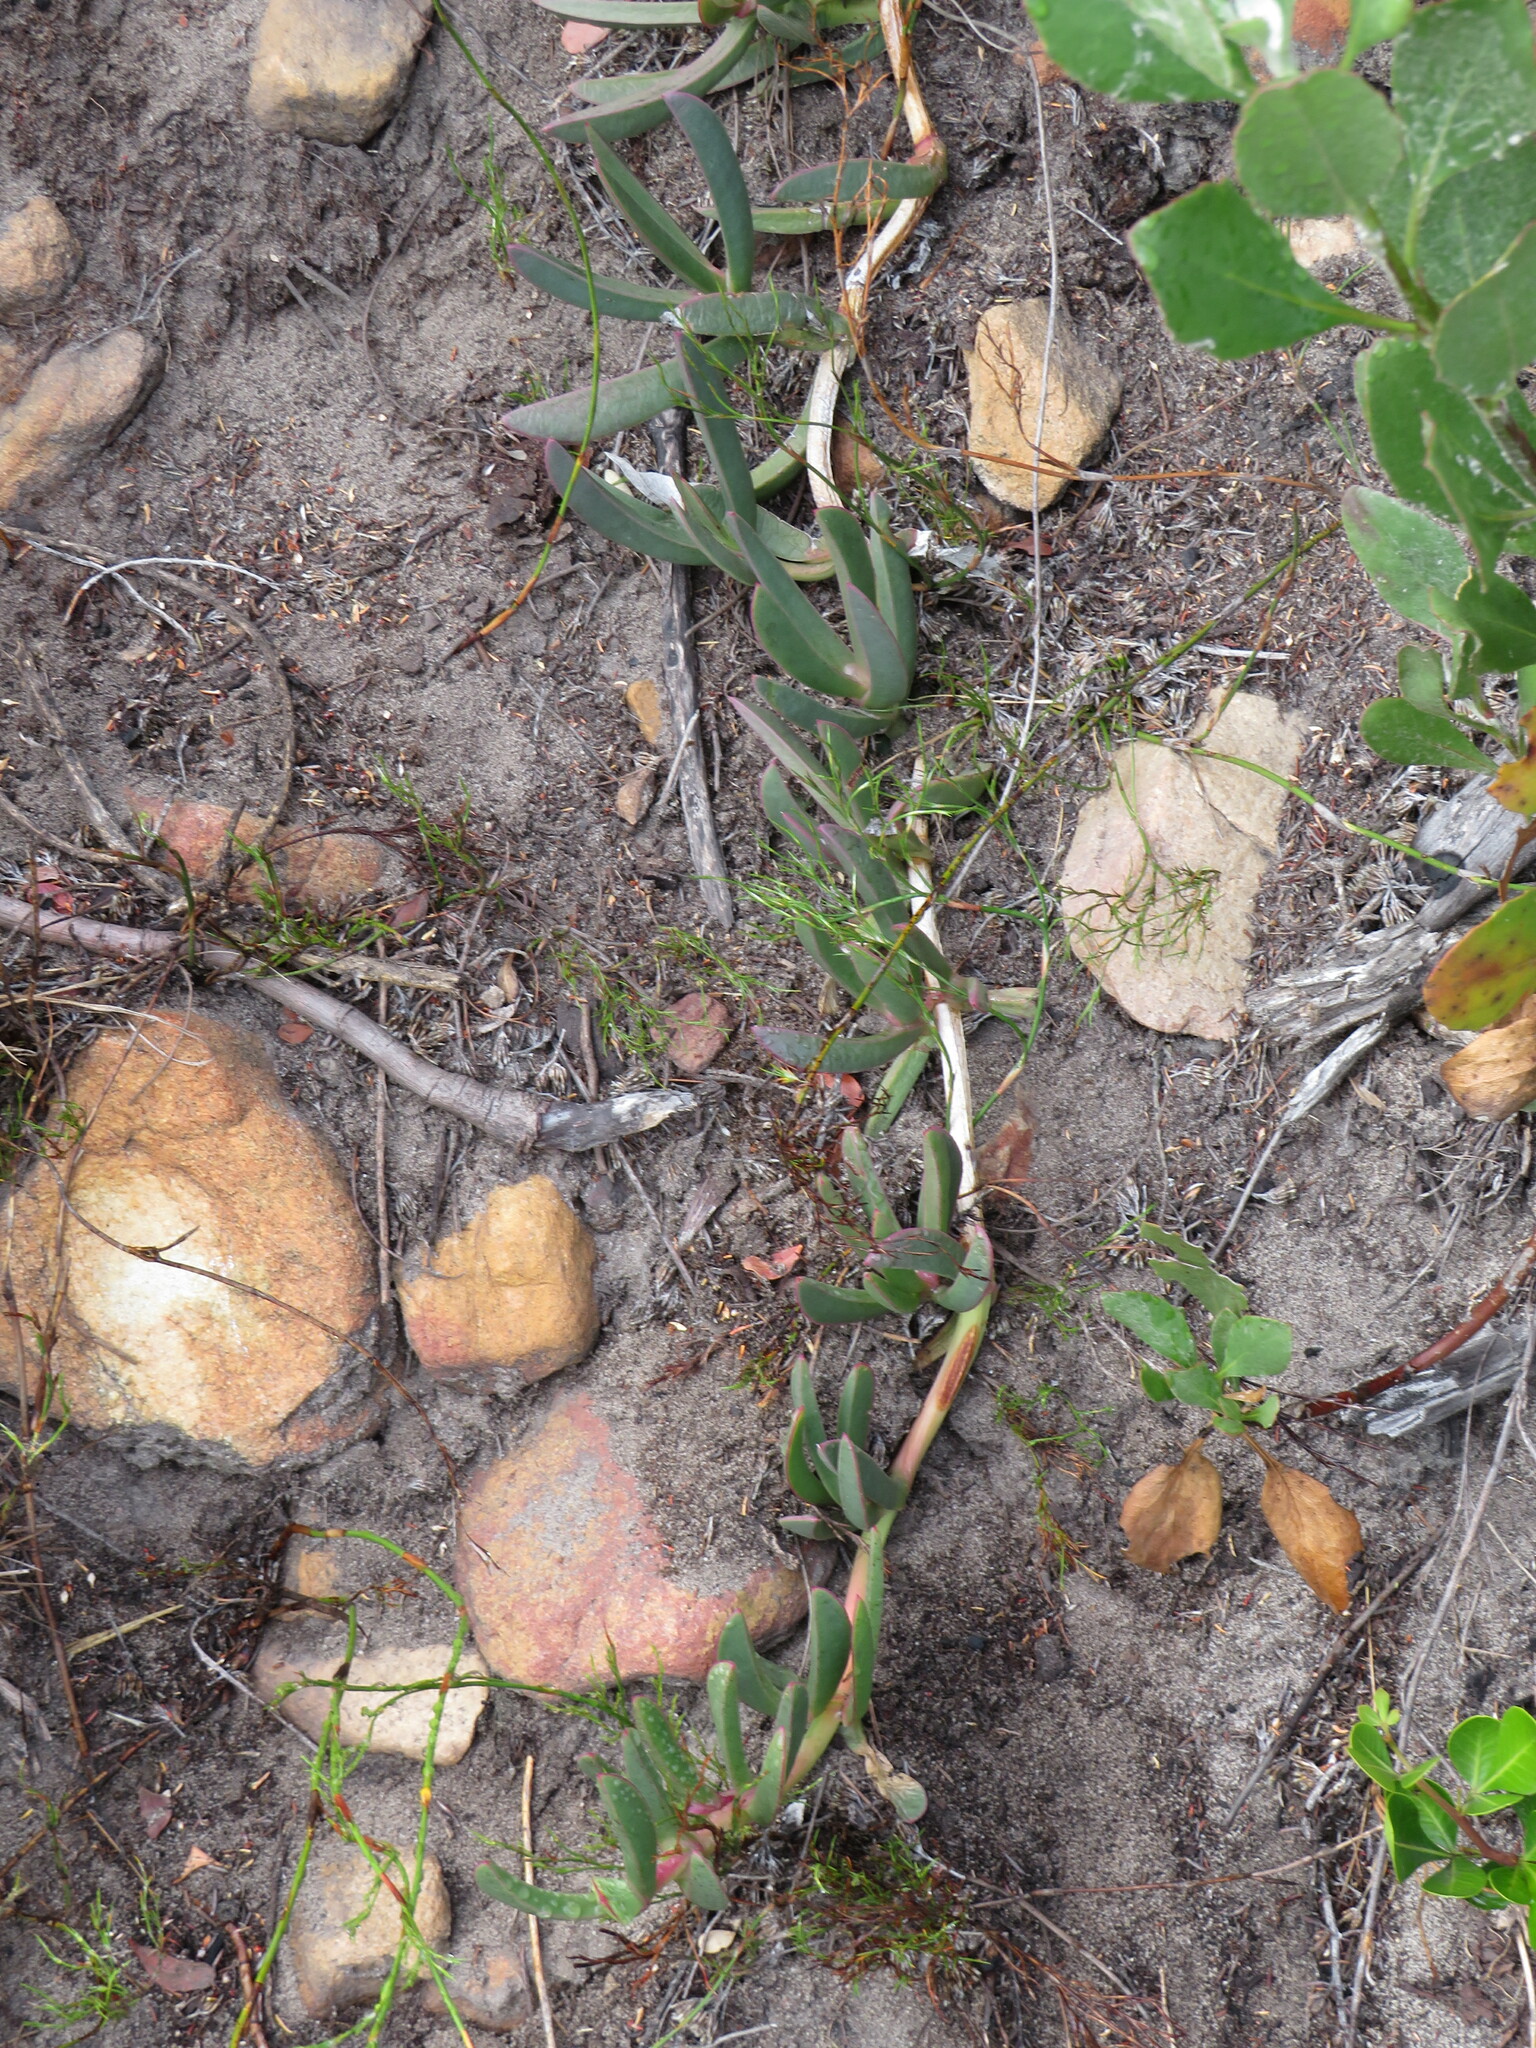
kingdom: Plantae
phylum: Tracheophyta
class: Magnoliopsida
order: Caryophyllales
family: Aizoaceae
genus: Carpobrotus
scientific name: Carpobrotus acinaciformis
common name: Sally-my-handsome
